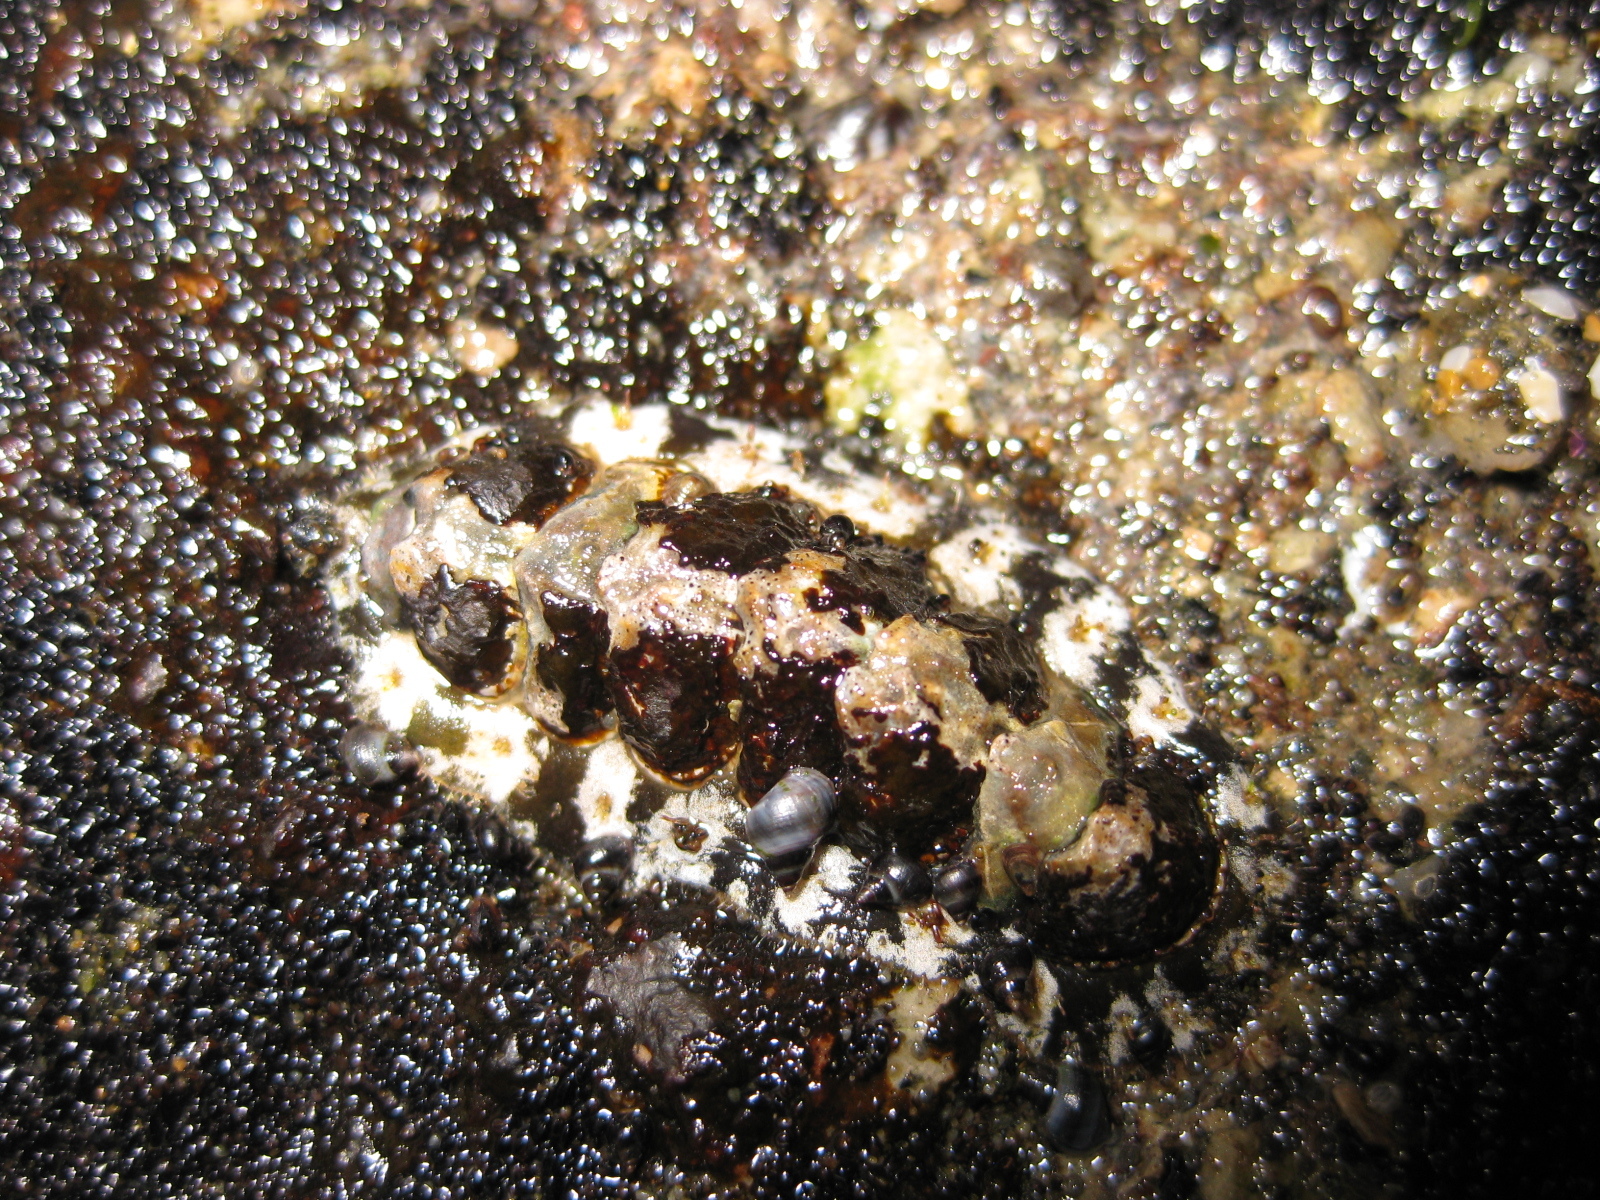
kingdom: Animalia
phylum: Mollusca
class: Polyplacophora
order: Chitonida
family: Mopaliidae
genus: Plaxiphora
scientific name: Plaxiphora caelata
